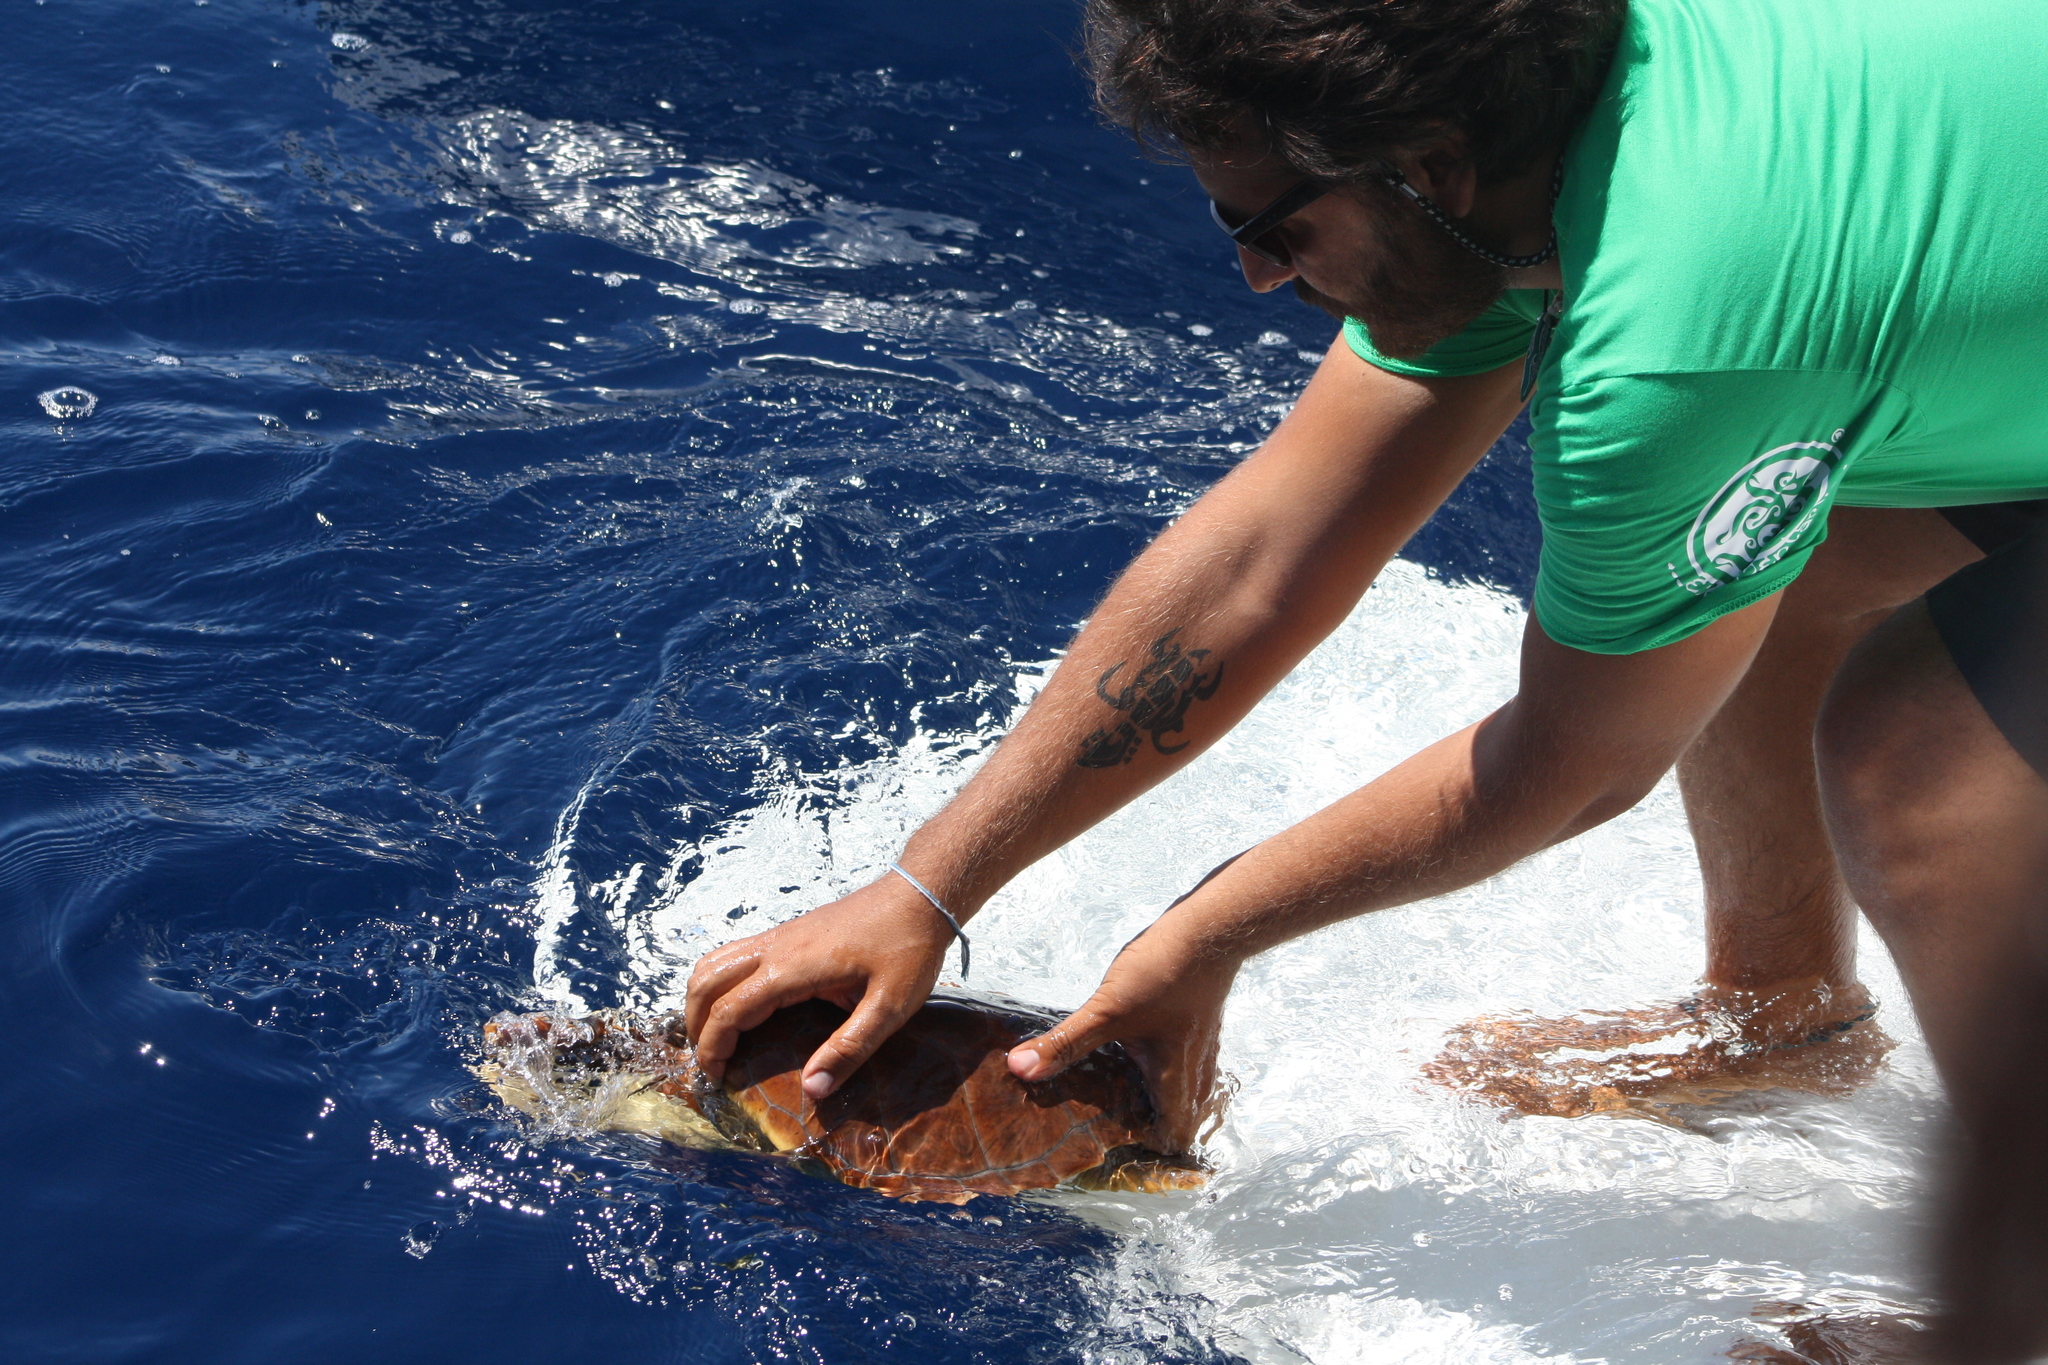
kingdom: Animalia
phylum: Chordata
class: Testudines
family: Cheloniidae
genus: Caretta
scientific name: Caretta caretta
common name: Loggerhead sea turtle
